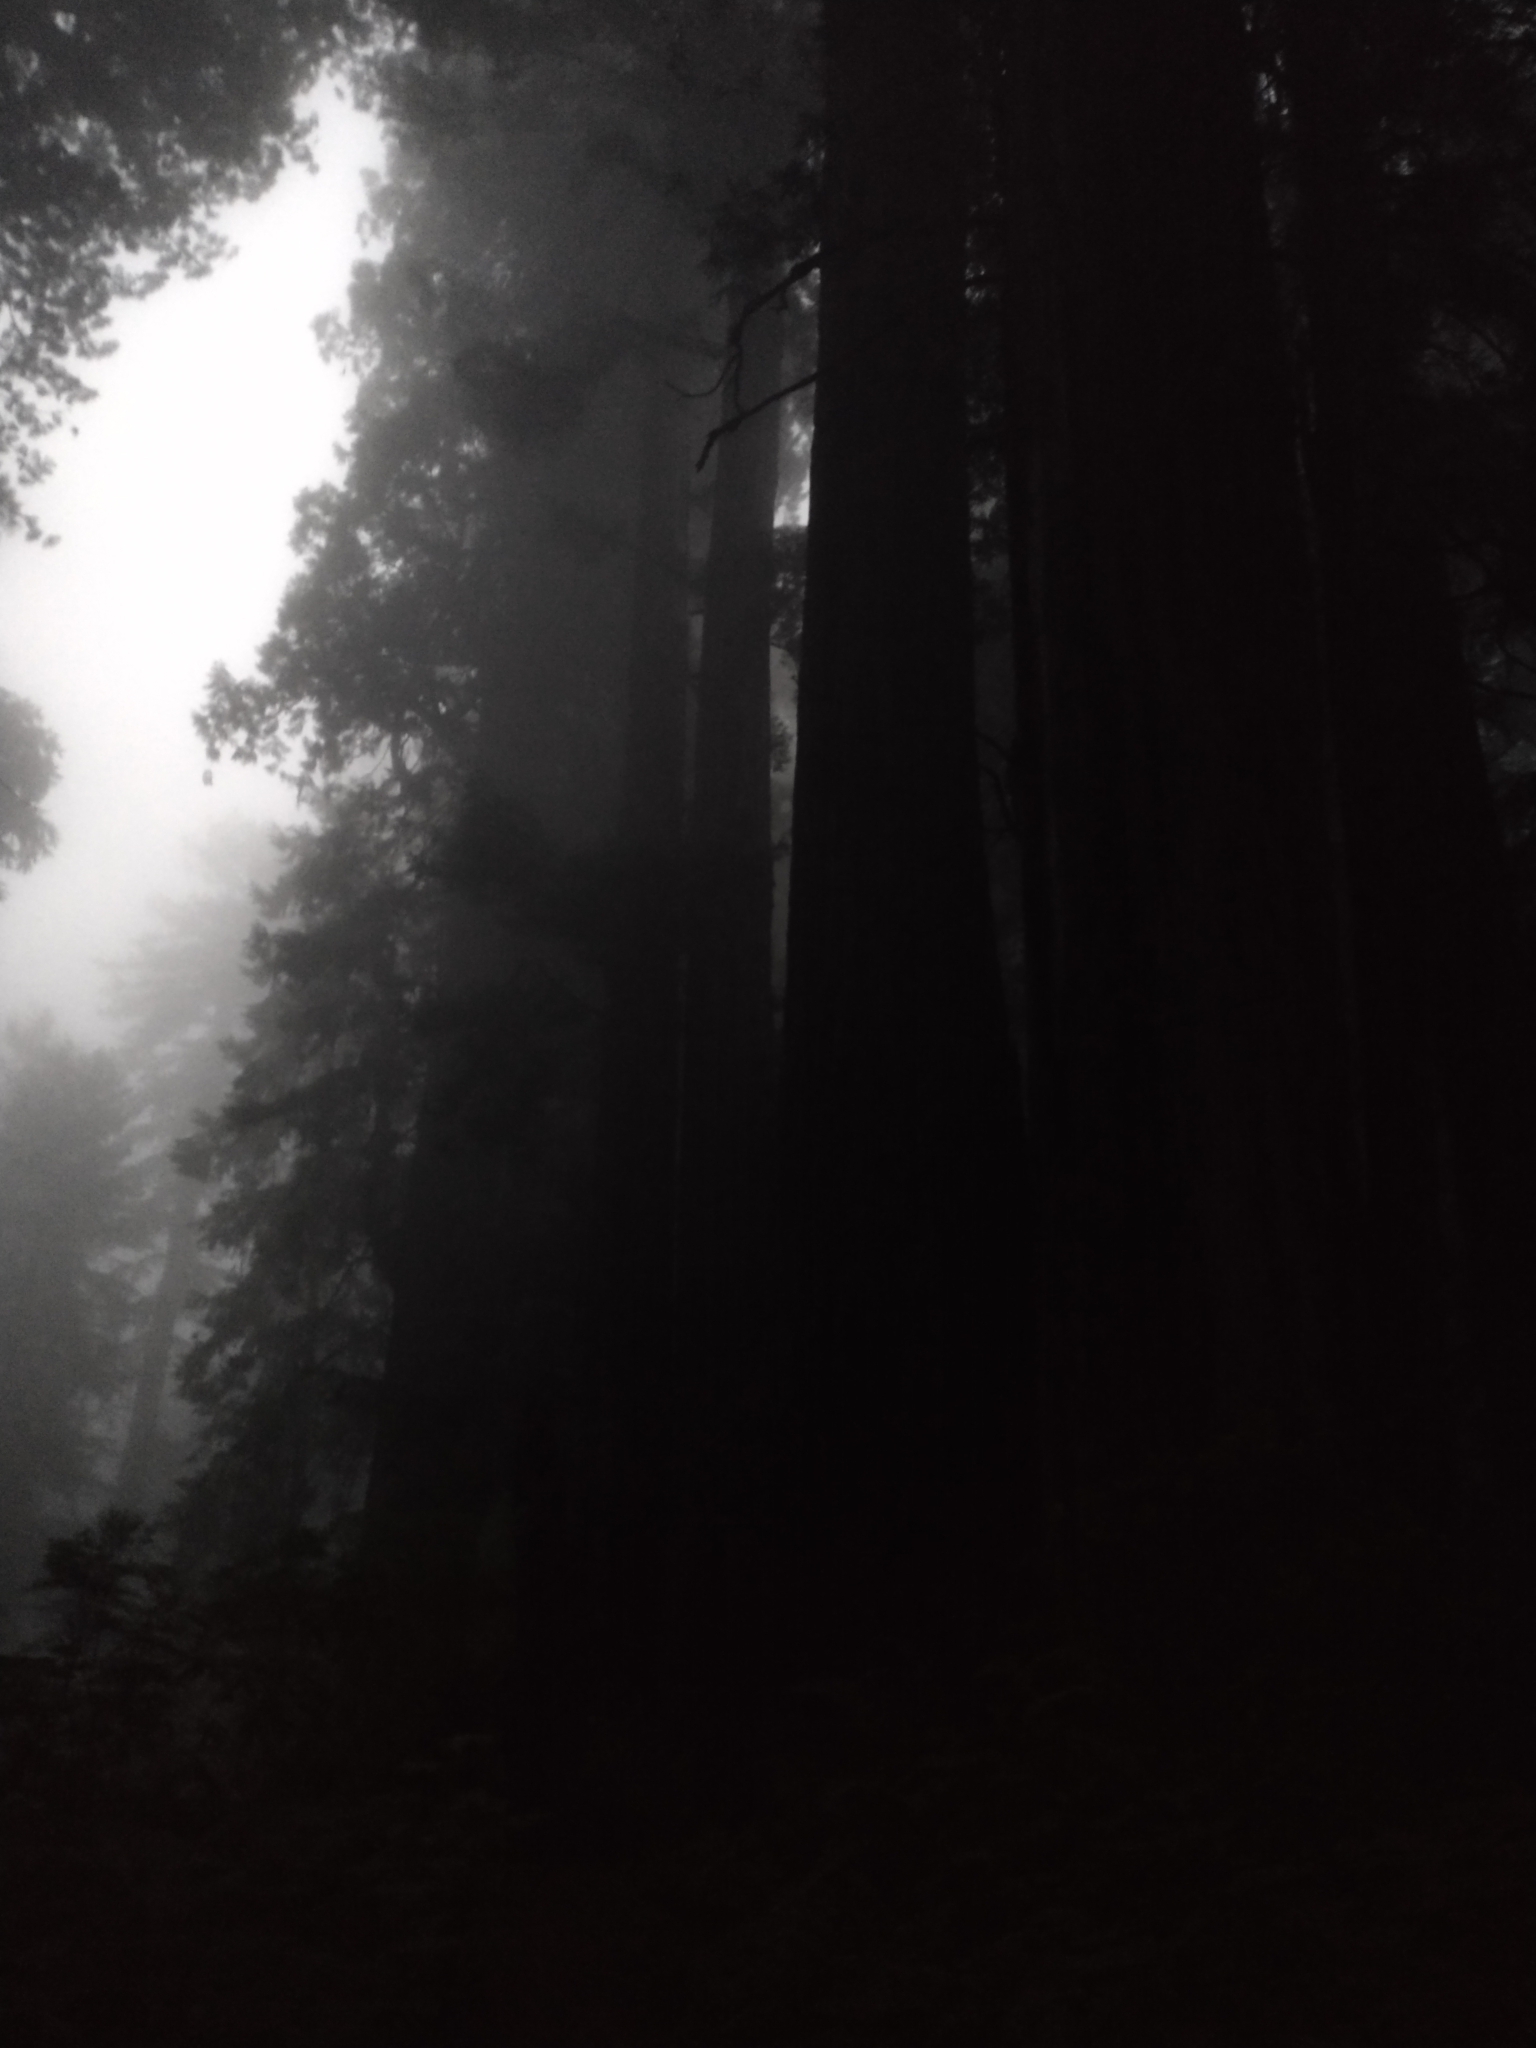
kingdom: Plantae
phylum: Tracheophyta
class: Pinopsida
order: Pinales
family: Cupressaceae
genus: Sequoia
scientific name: Sequoia sempervirens
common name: Coast redwood
